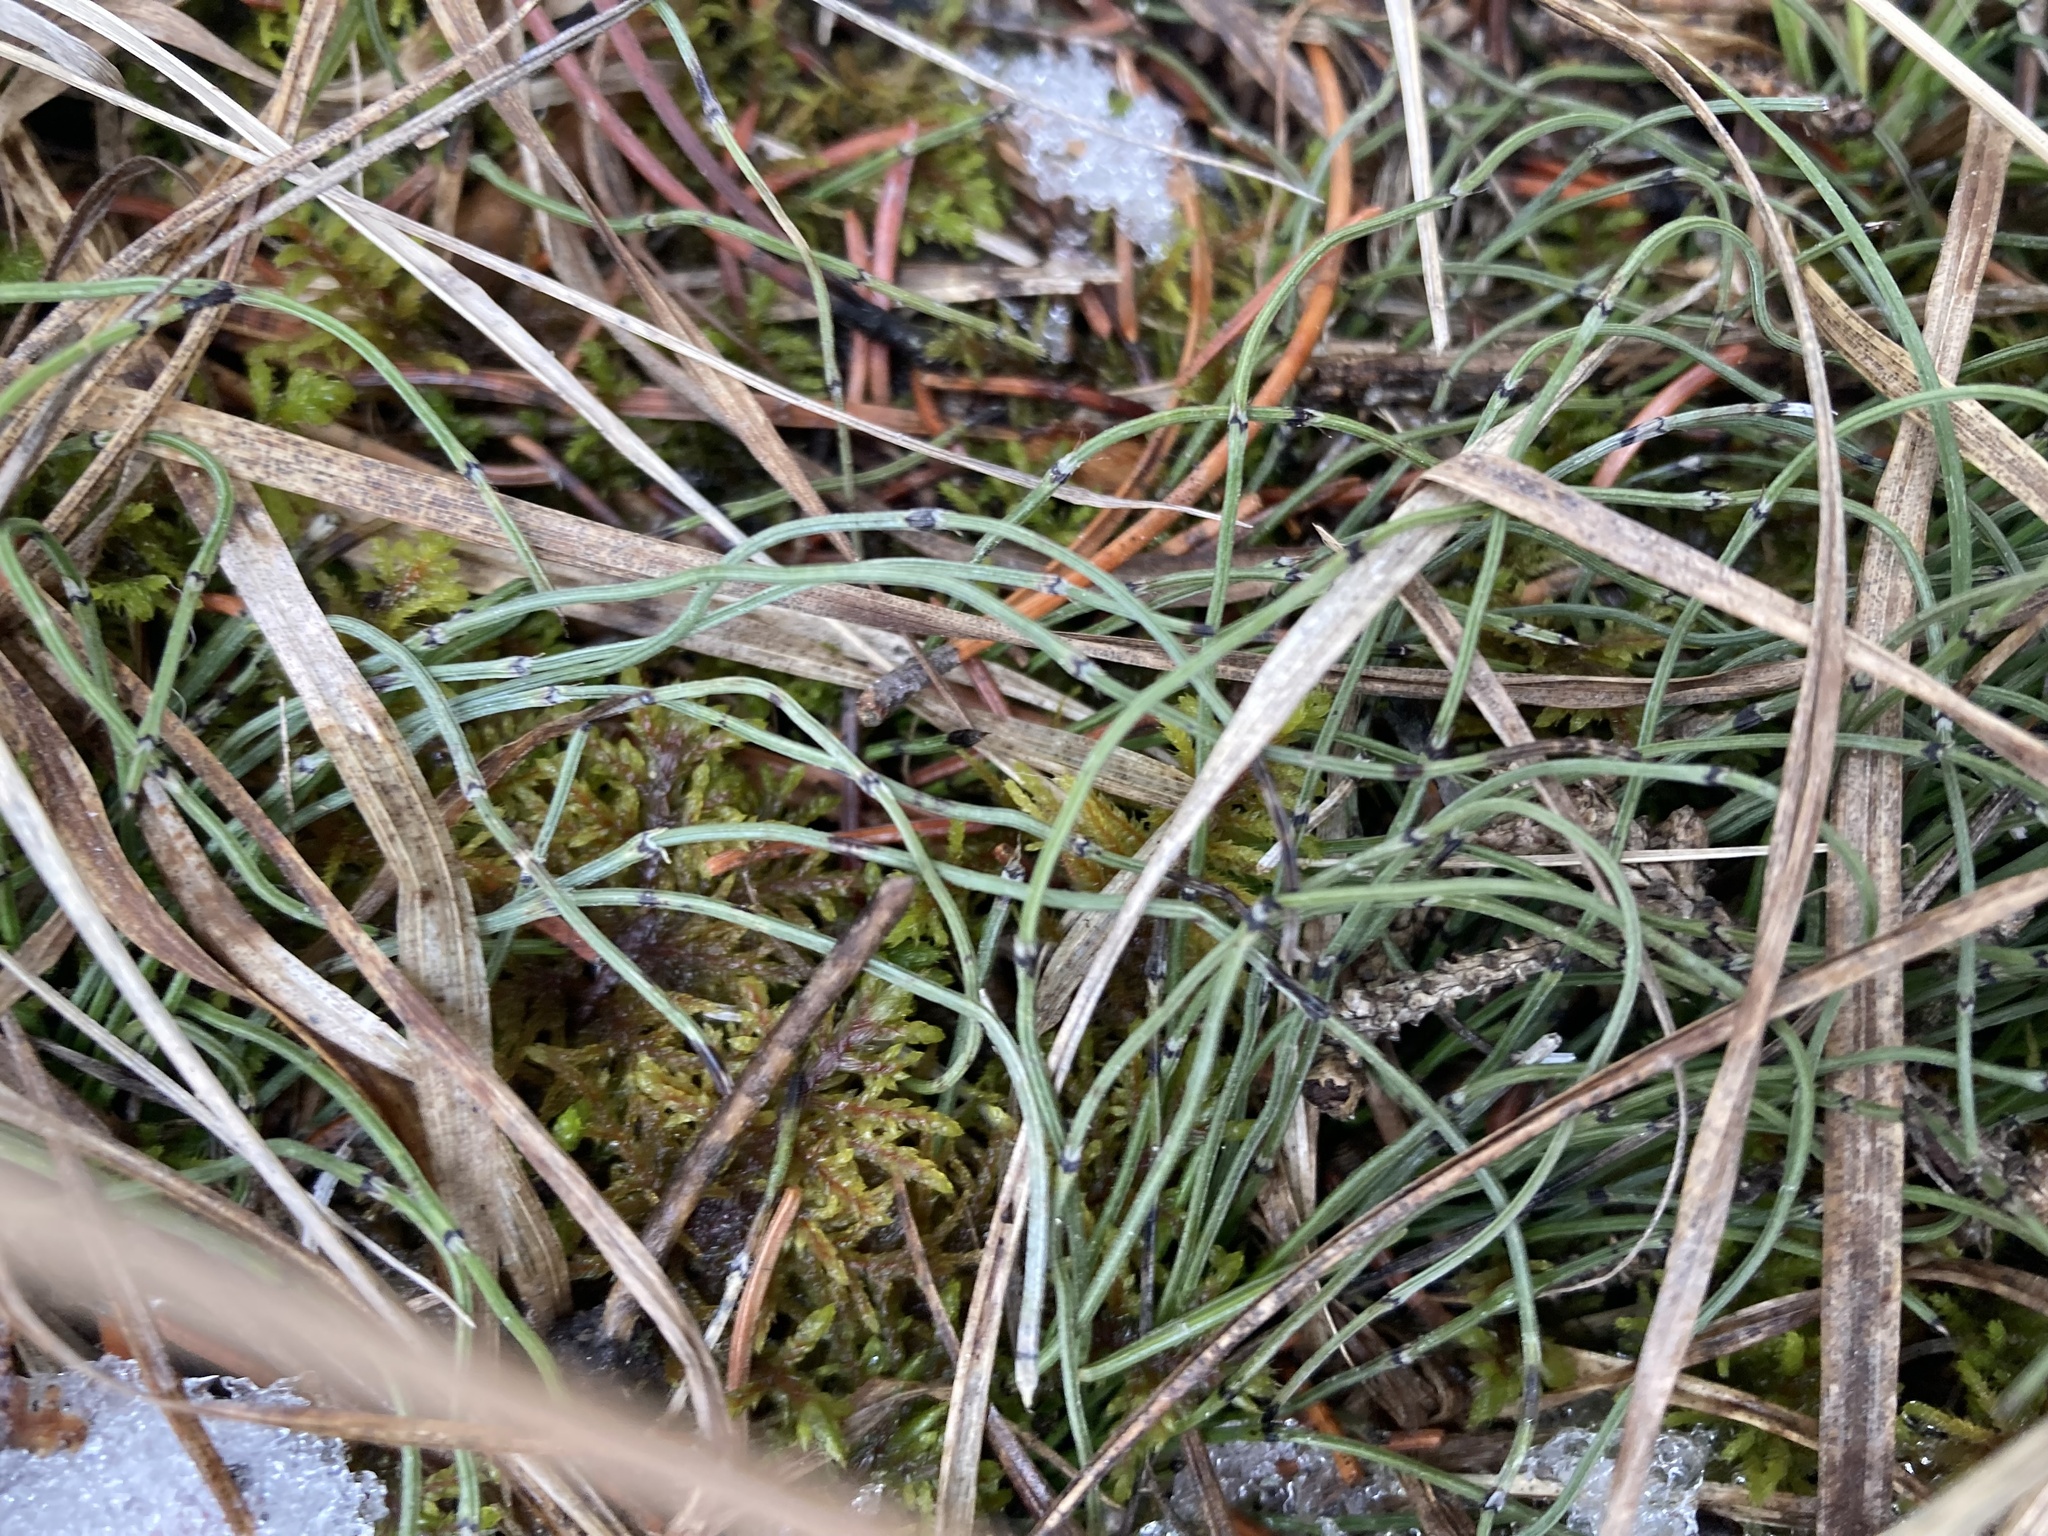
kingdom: Plantae
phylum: Tracheophyta
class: Polypodiopsida
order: Equisetales
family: Equisetaceae
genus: Equisetum
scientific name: Equisetum scirpoides
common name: Delicate horsetail
